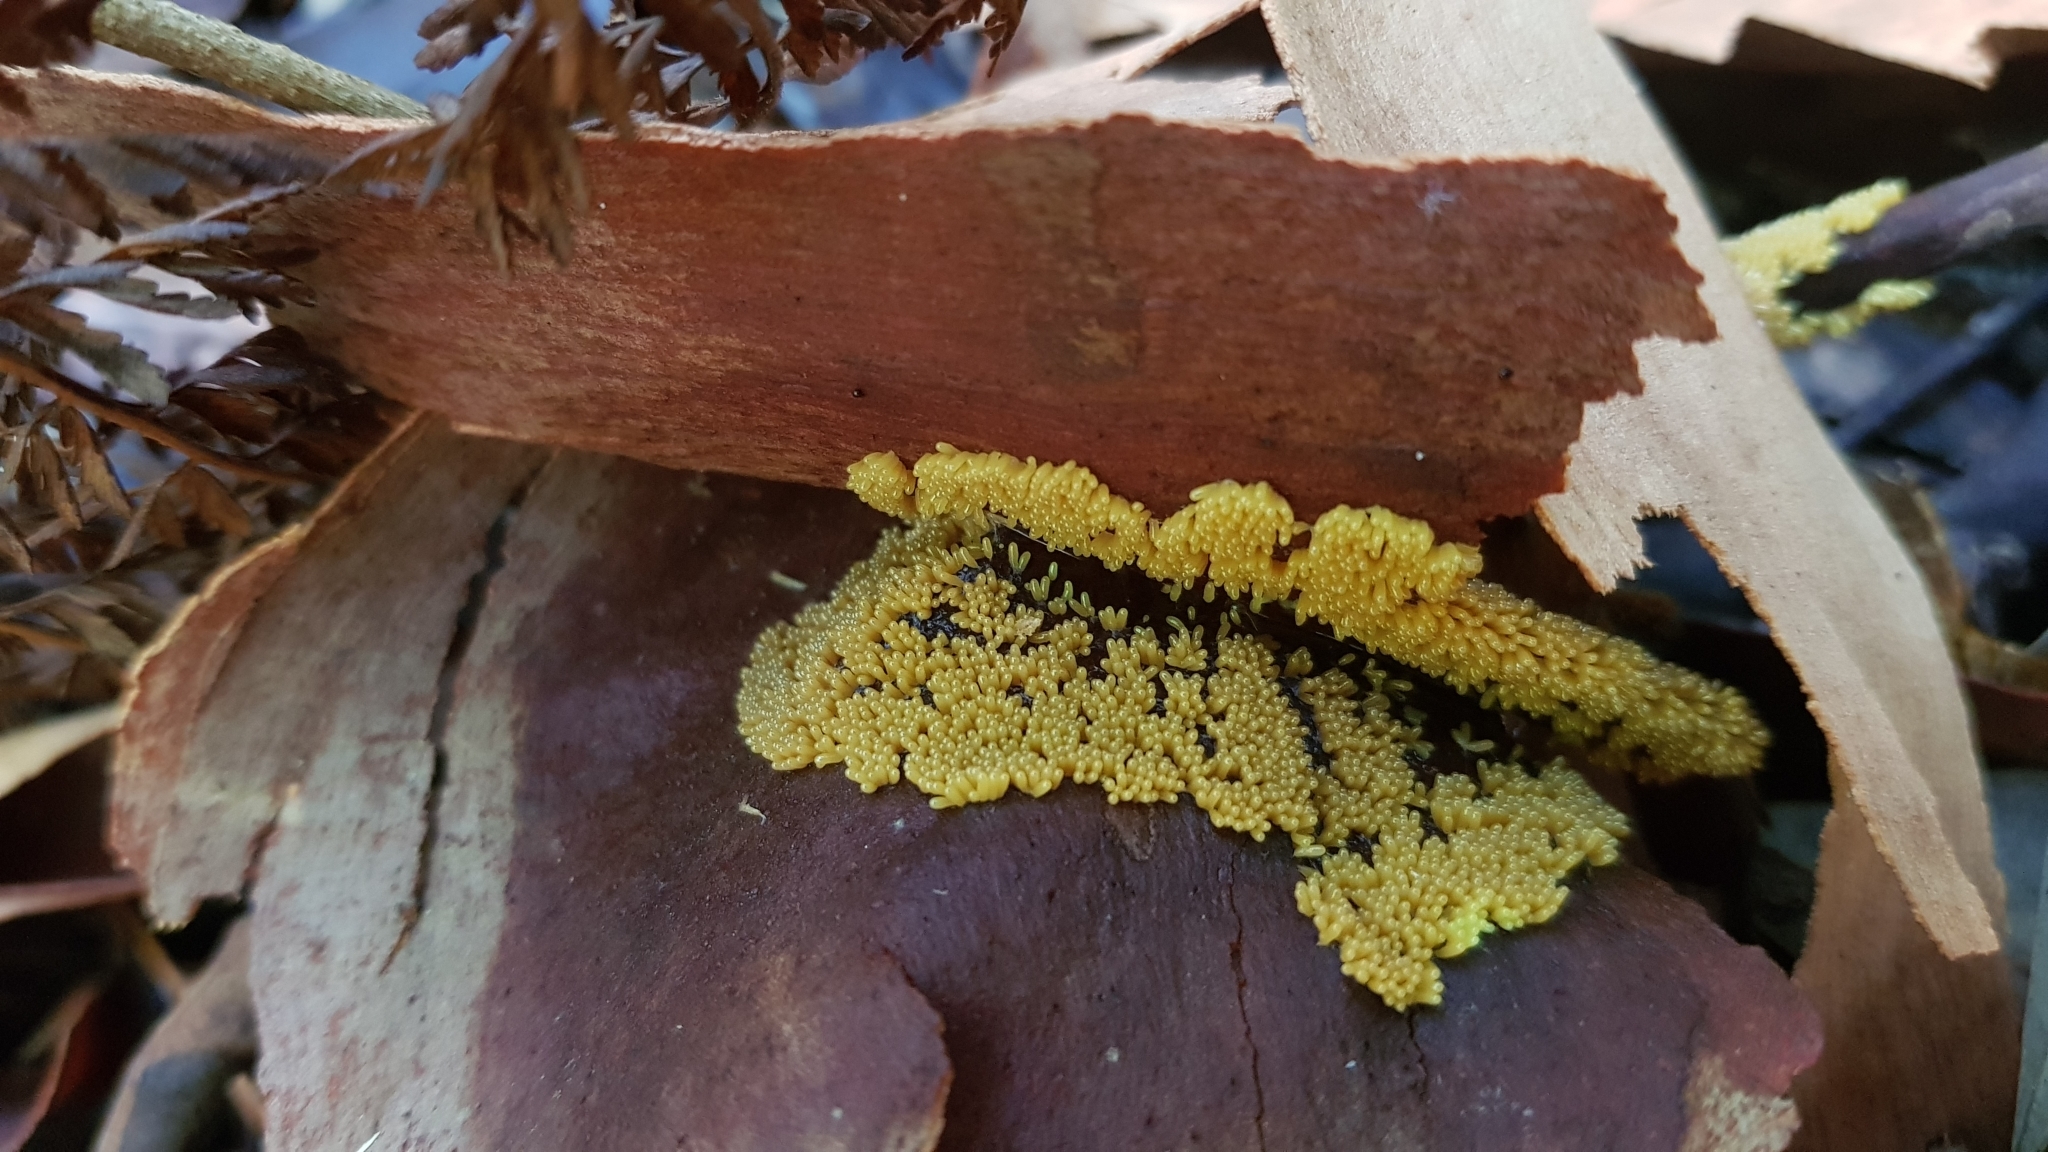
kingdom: Protozoa
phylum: Mycetozoa
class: Myxomycetes
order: Stemonitidales
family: Stemonitidaceae
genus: Paradiachea
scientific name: Paradiachea cylindrica
